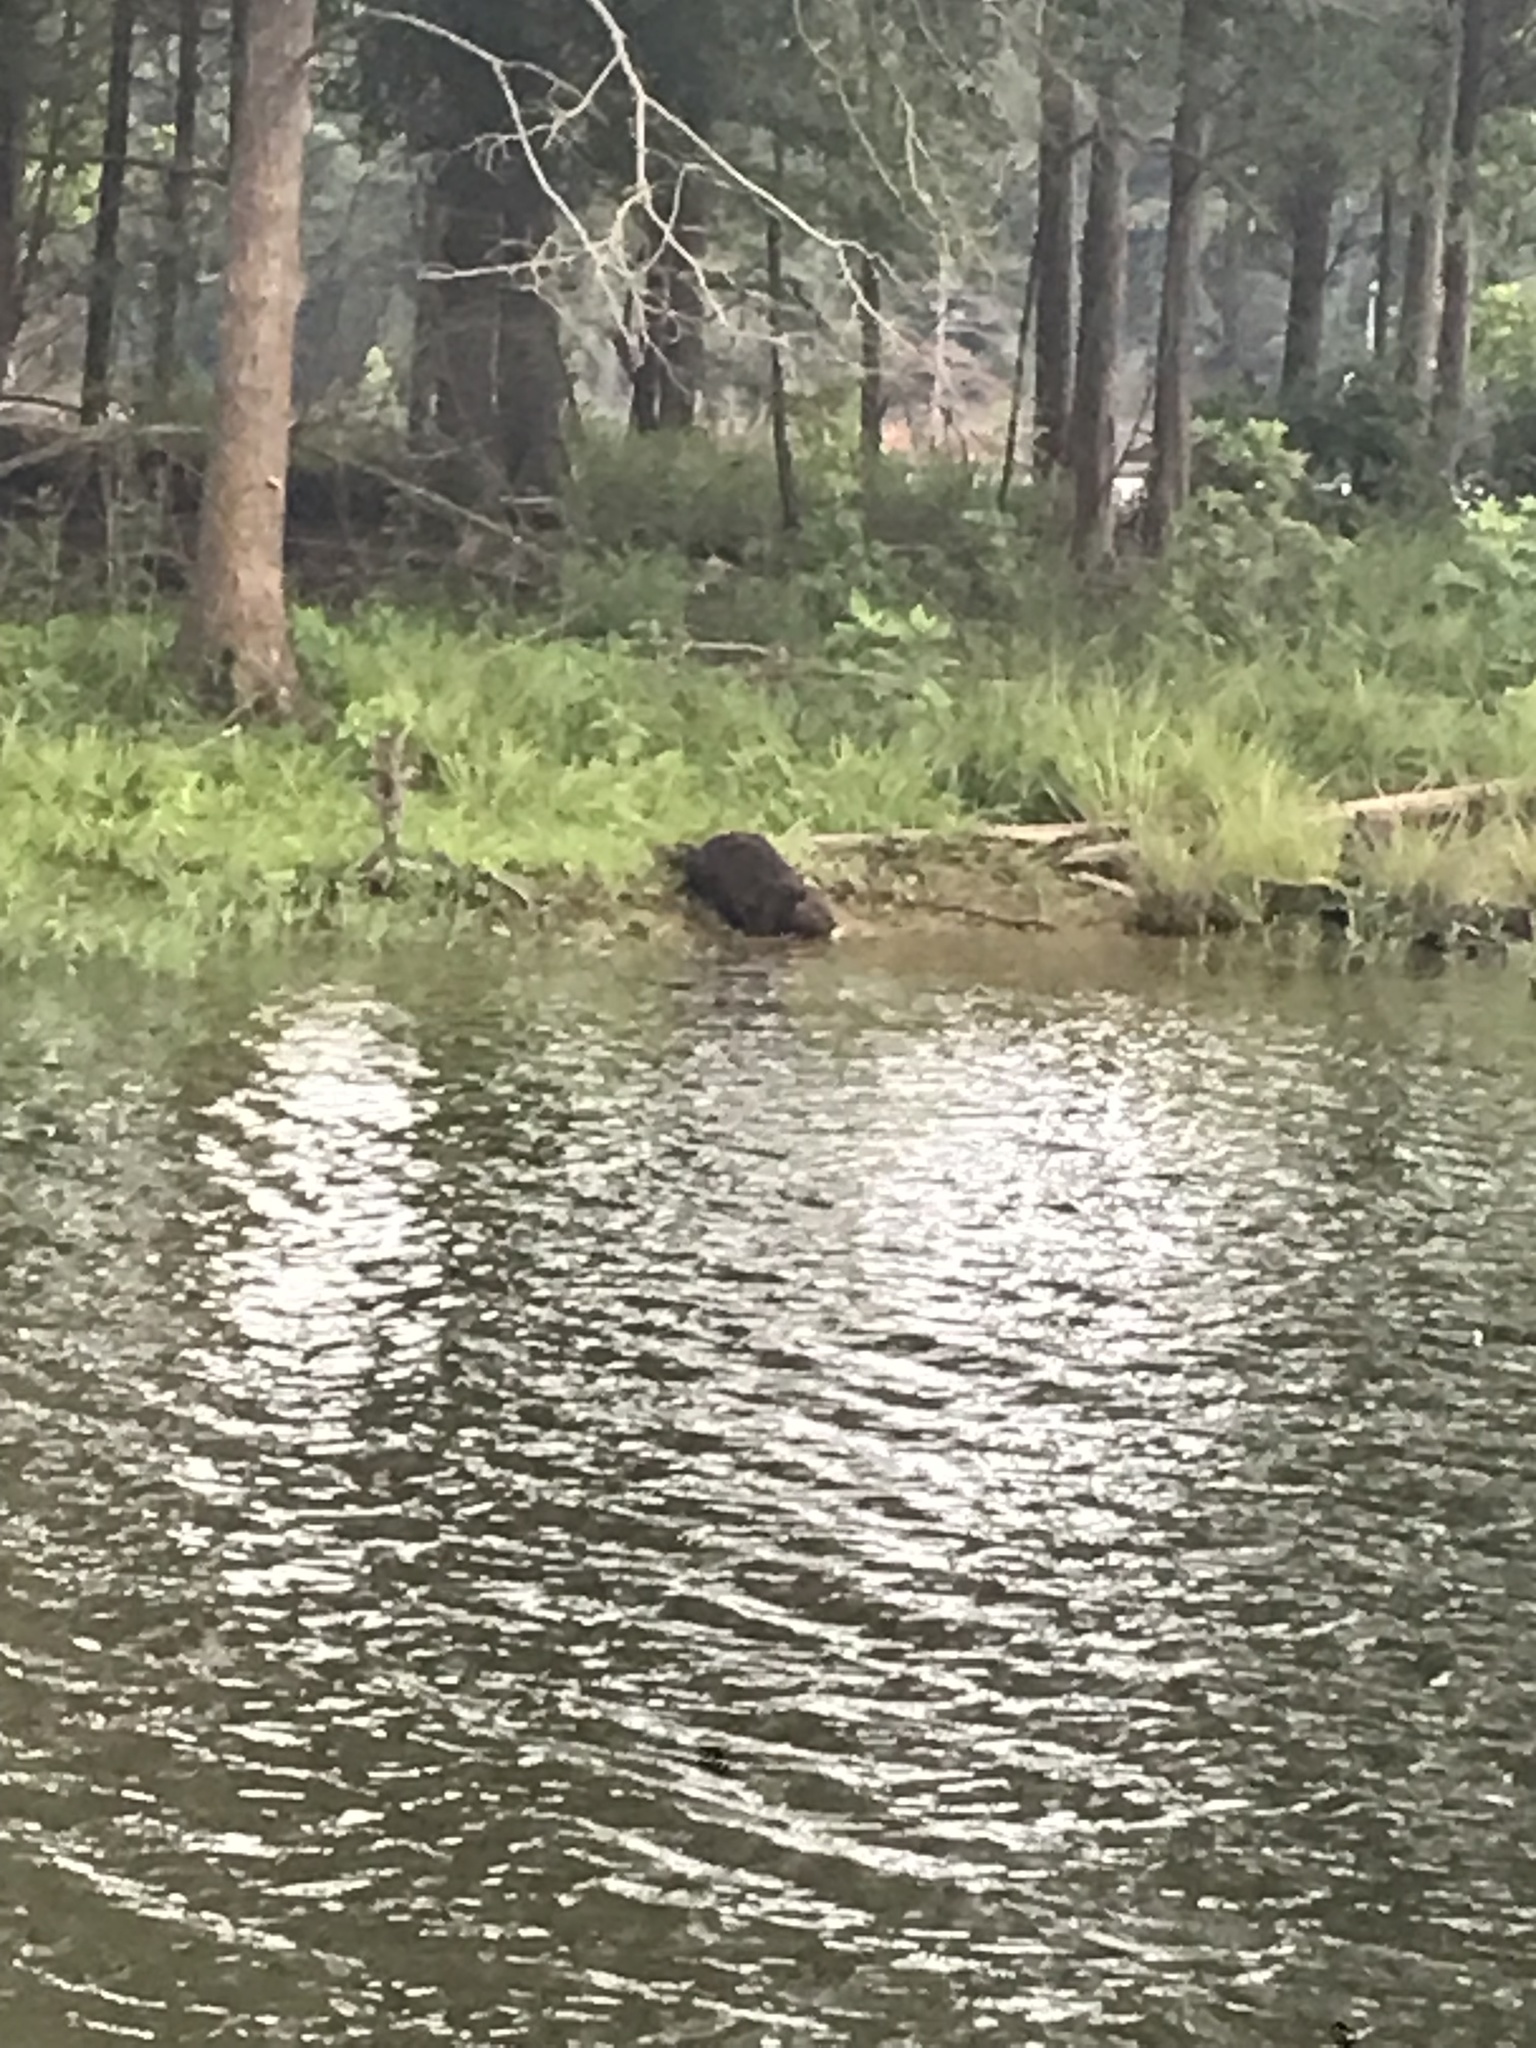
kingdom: Animalia
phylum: Chordata
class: Mammalia
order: Rodentia
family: Castoridae
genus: Castor
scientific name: Castor canadensis
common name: American beaver
